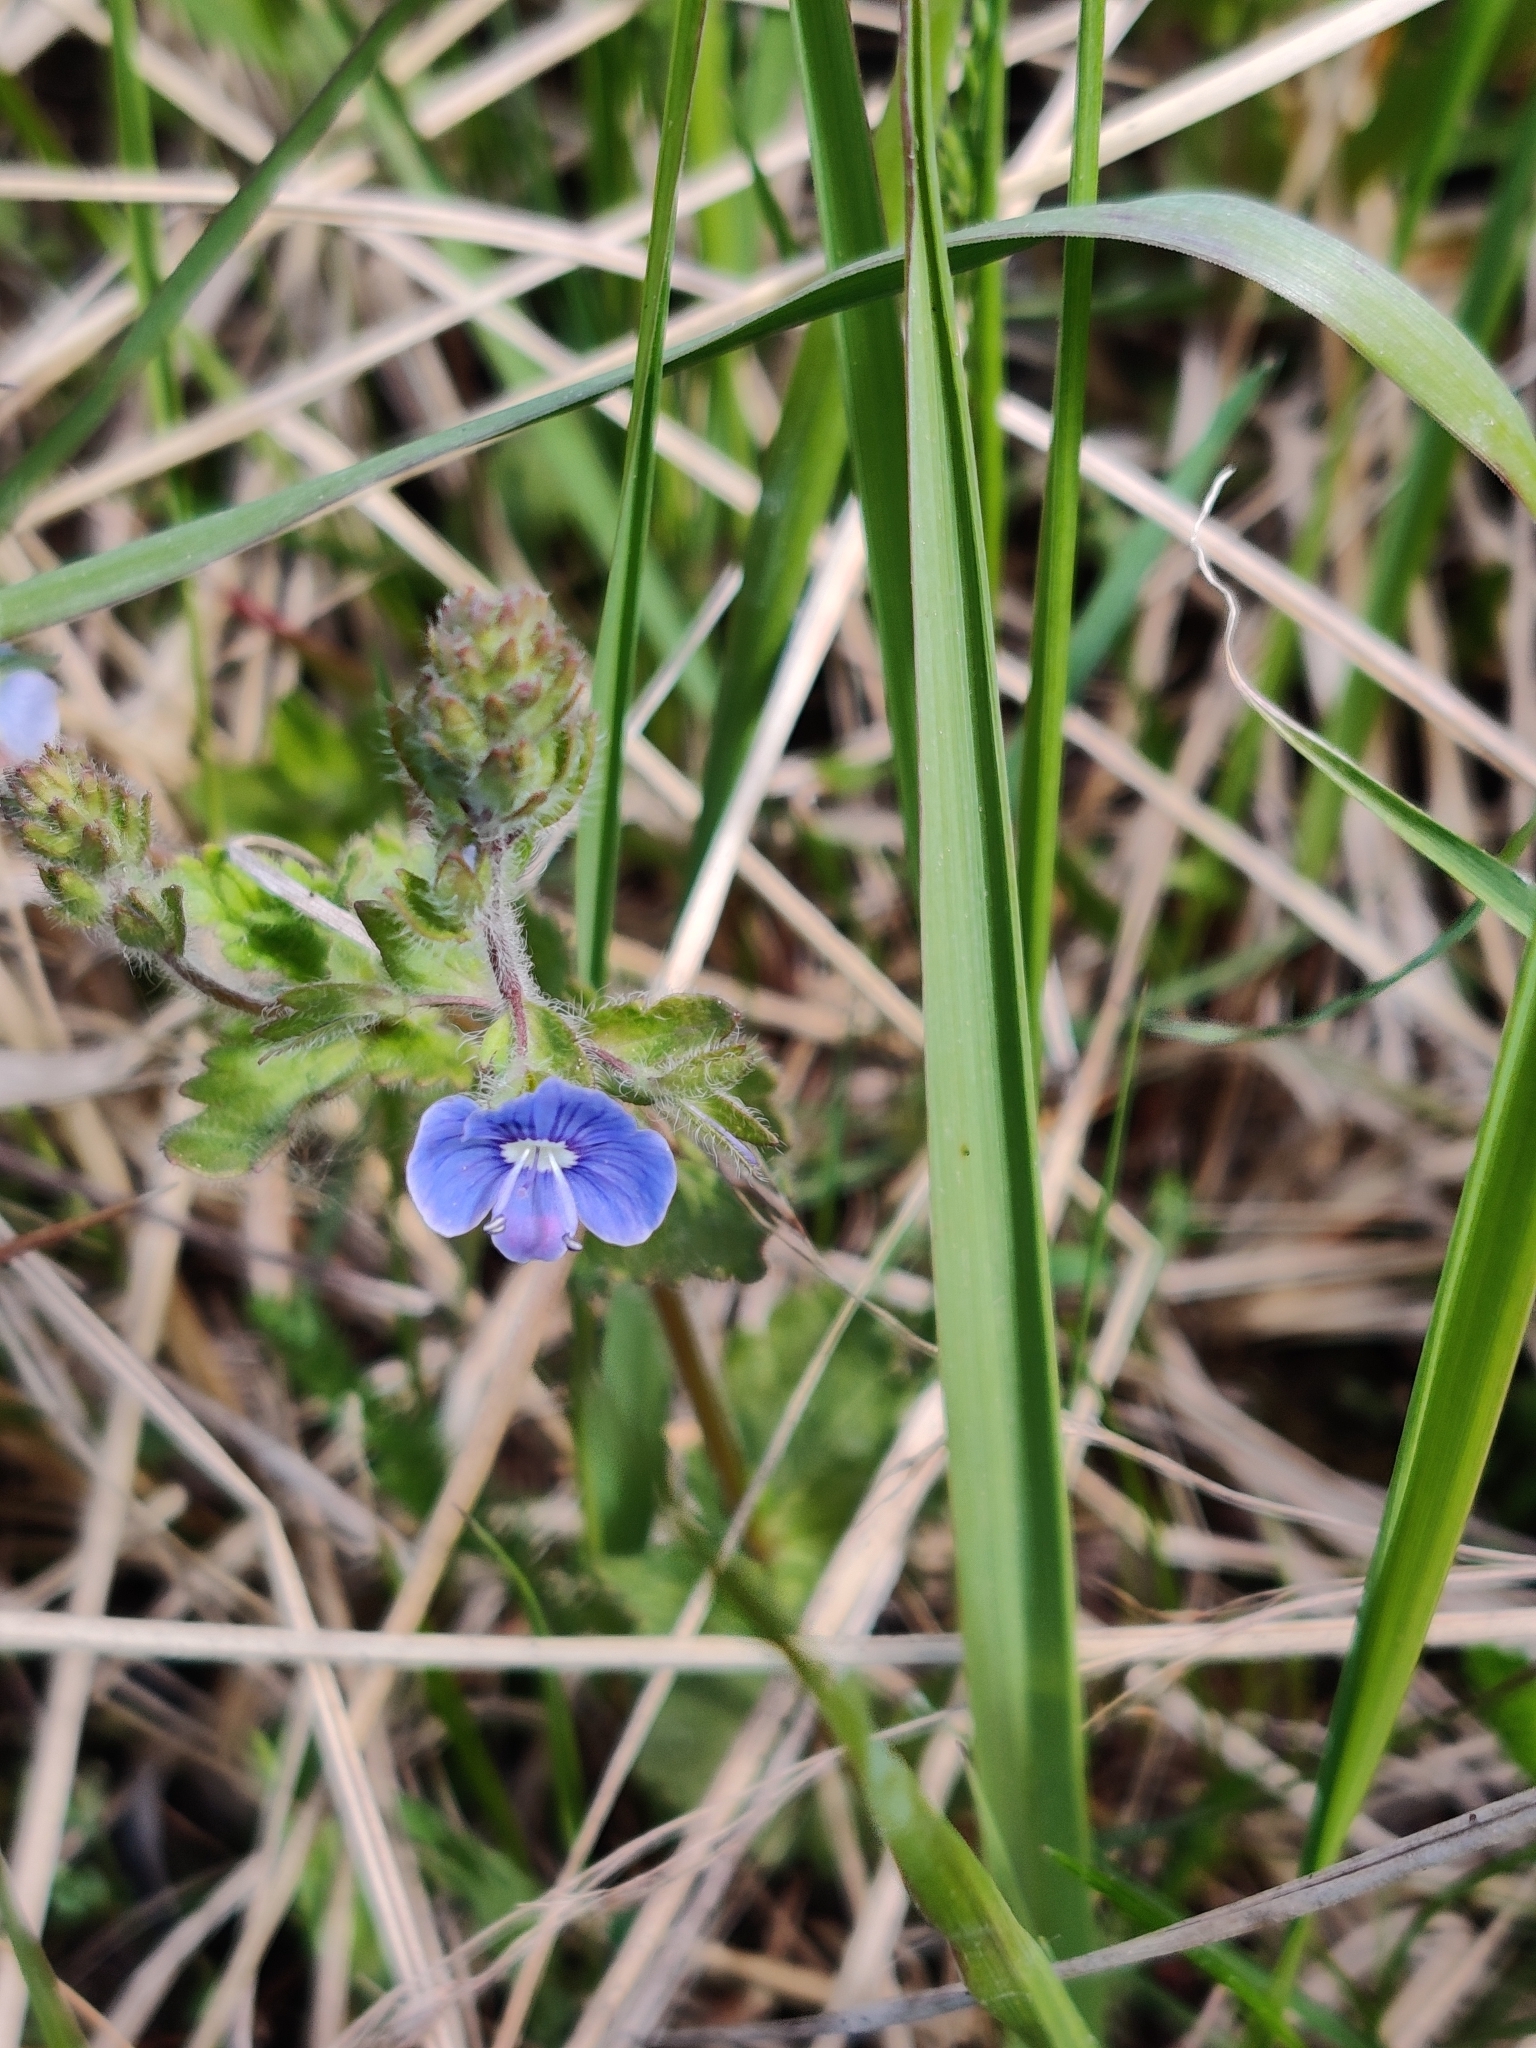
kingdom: Plantae
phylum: Tracheophyta
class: Magnoliopsida
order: Lamiales
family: Plantaginaceae
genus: Veronica
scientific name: Veronica chamaedrys
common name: Germander speedwell
